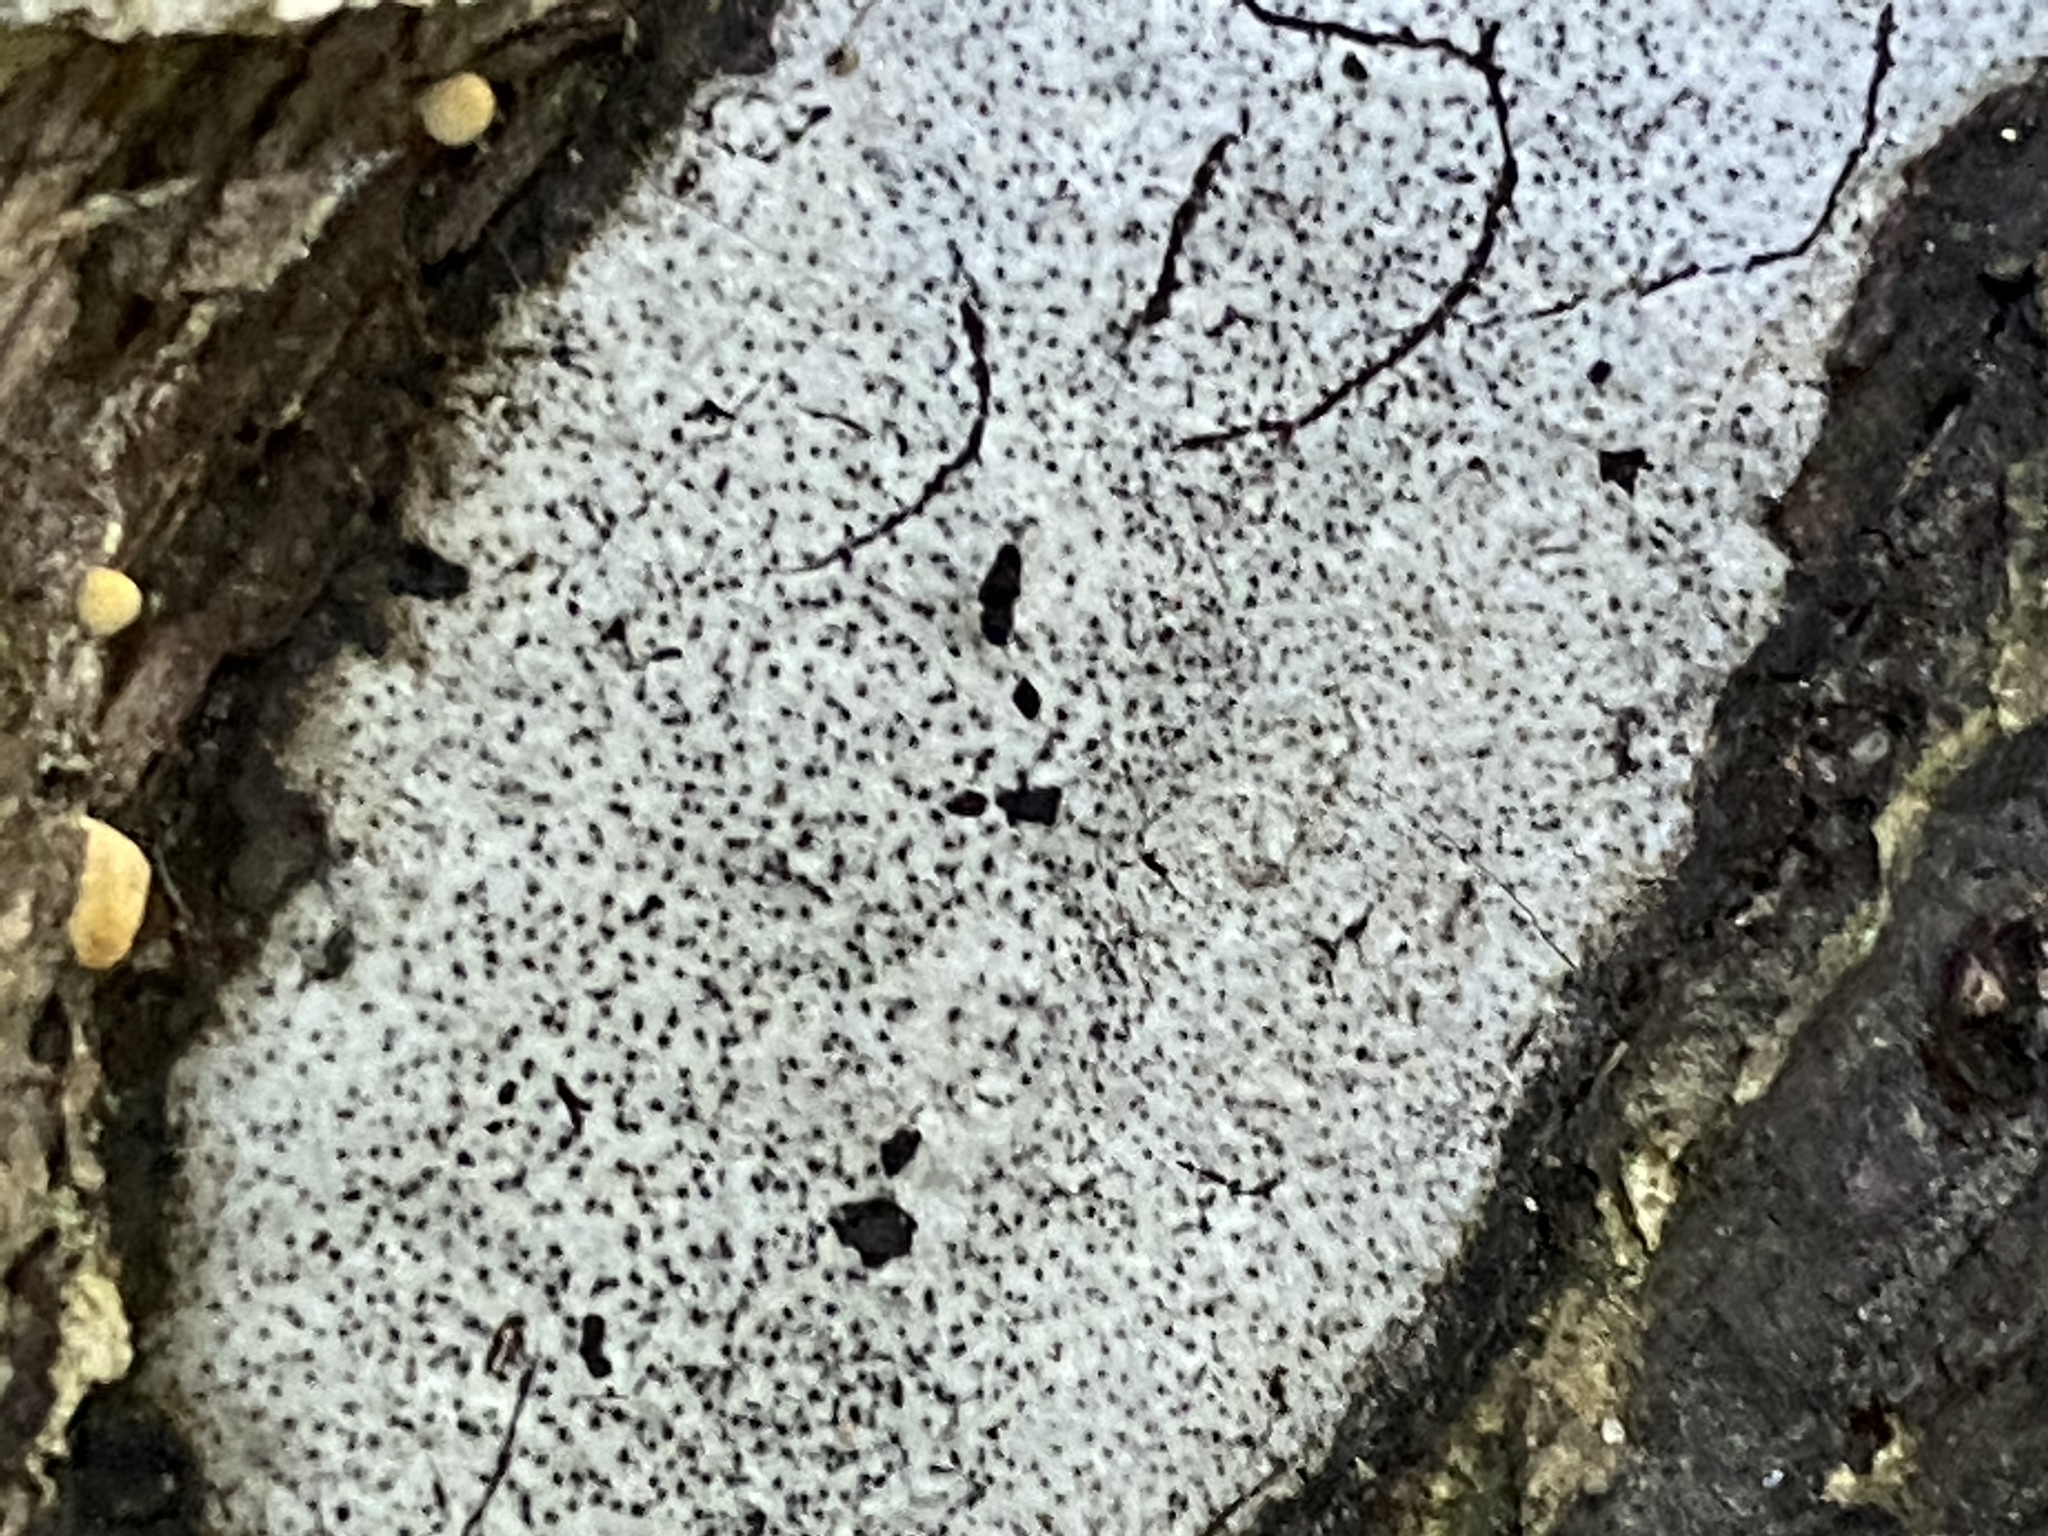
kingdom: Fungi
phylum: Ascomycota
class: Sordariomycetes
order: Xylariales
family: Graphostromataceae
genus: Biscogniauxia
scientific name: Biscogniauxia atropunctata
